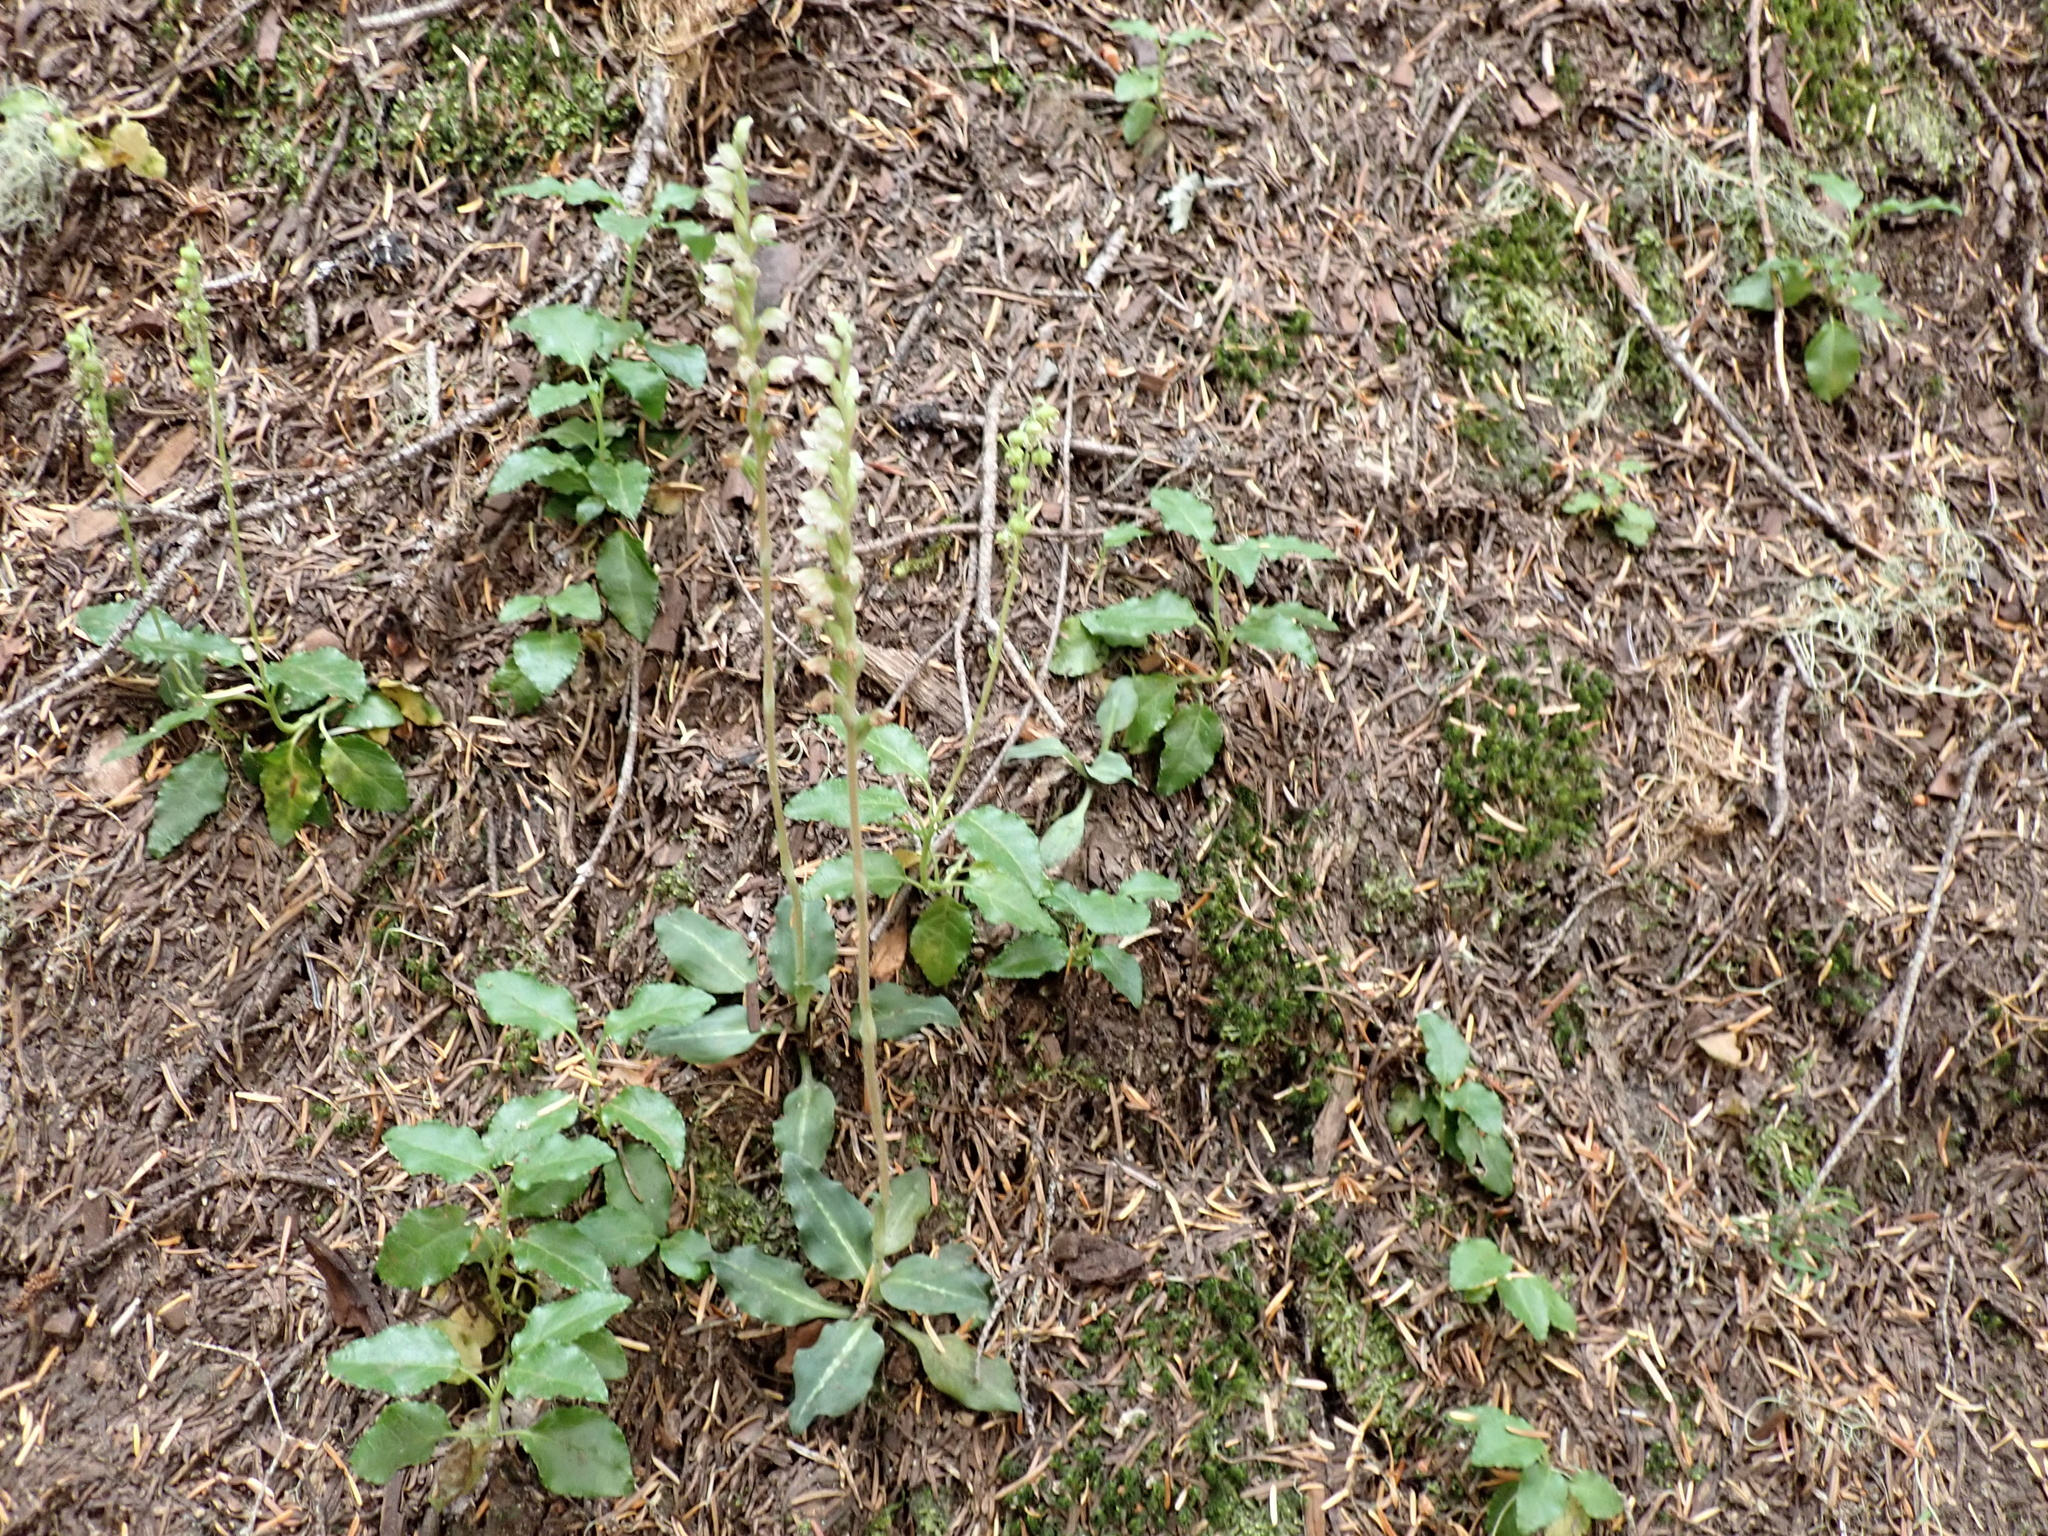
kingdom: Plantae
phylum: Tracheophyta
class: Liliopsida
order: Asparagales
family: Orchidaceae
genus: Goodyera
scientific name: Goodyera oblongifolia
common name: Giant rattlesnake-plantain
